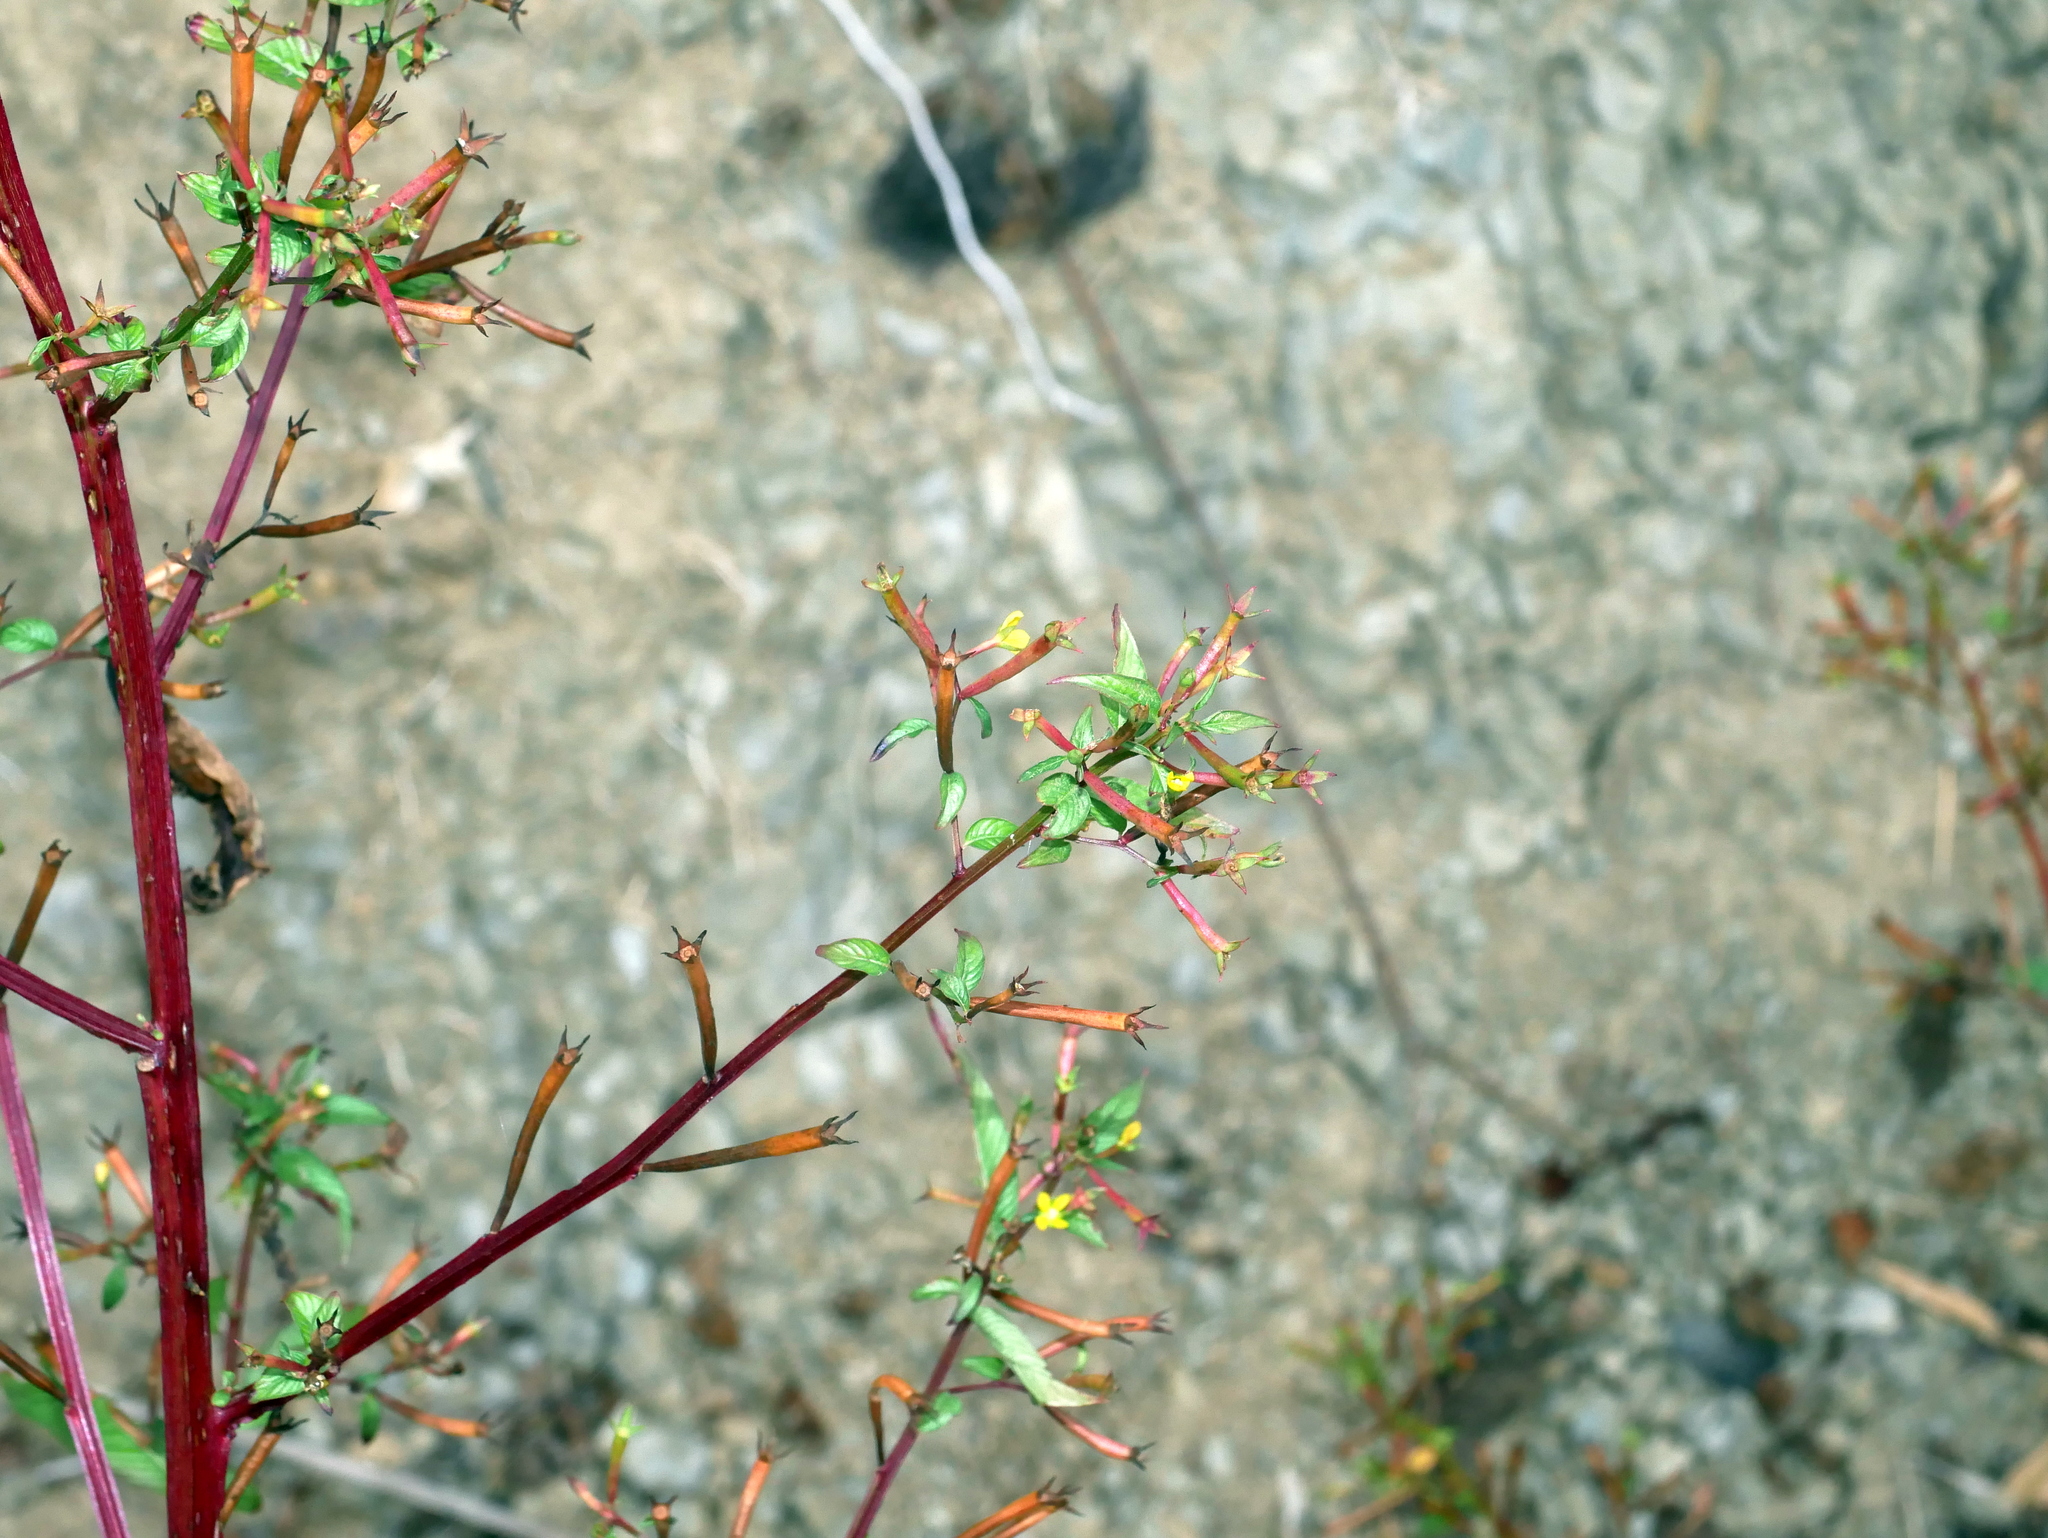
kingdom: Plantae
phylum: Tracheophyta
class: Magnoliopsida
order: Myrtales
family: Onagraceae
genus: Ludwigia
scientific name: Ludwigia hyssopifolia
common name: Linear leaf water primrose
